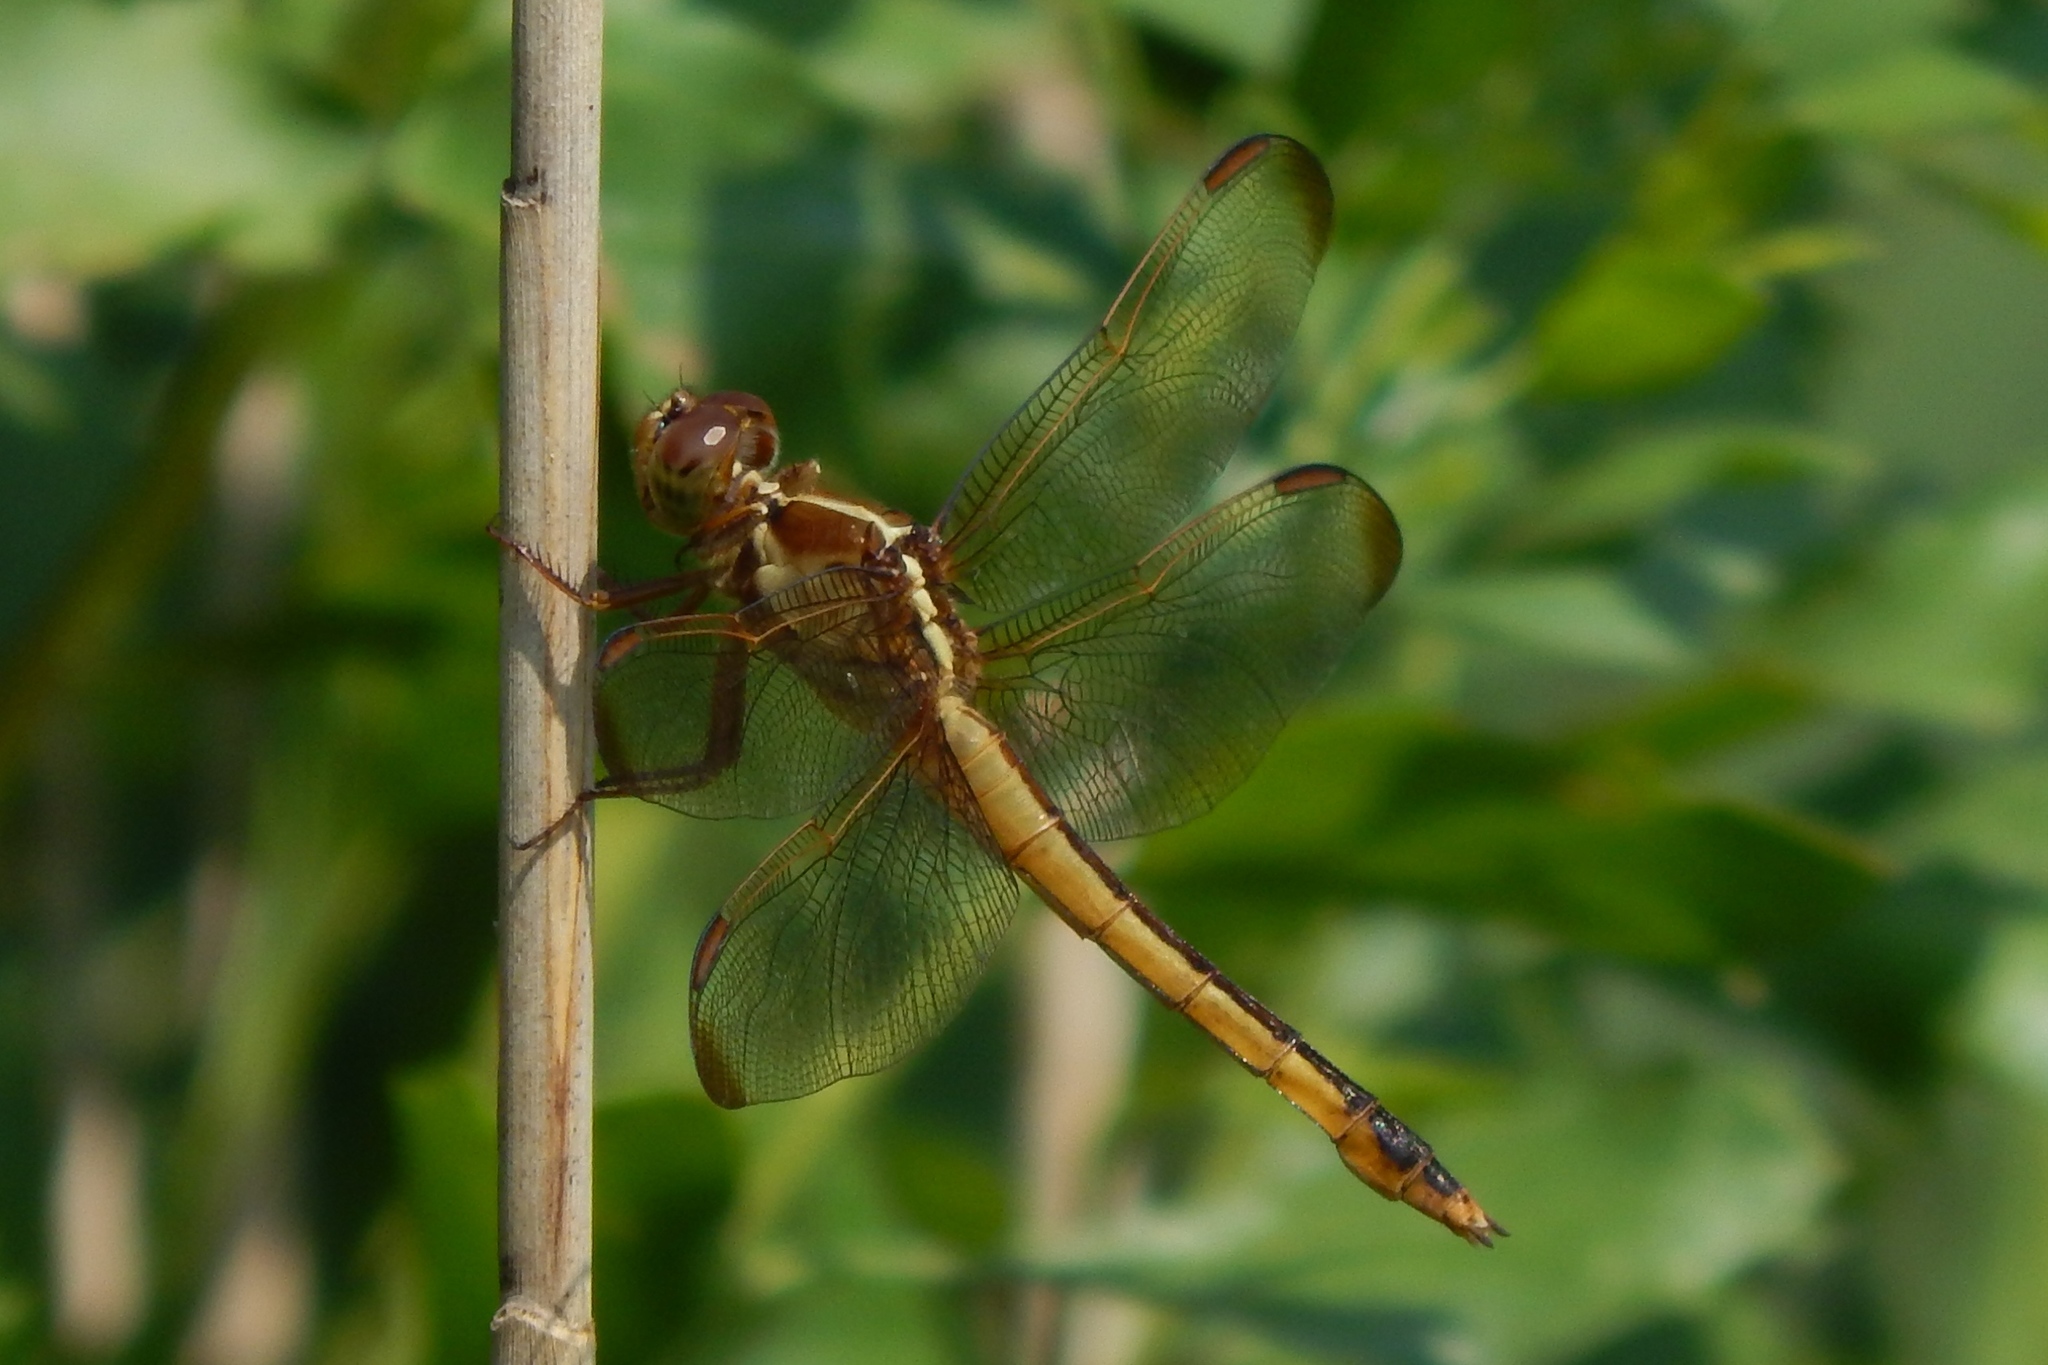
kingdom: Animalia
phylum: Arthropoda
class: Insecta
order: Odonata
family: Libellulidae
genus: Libellula
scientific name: Libellula needhami
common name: Needham's skimmer
